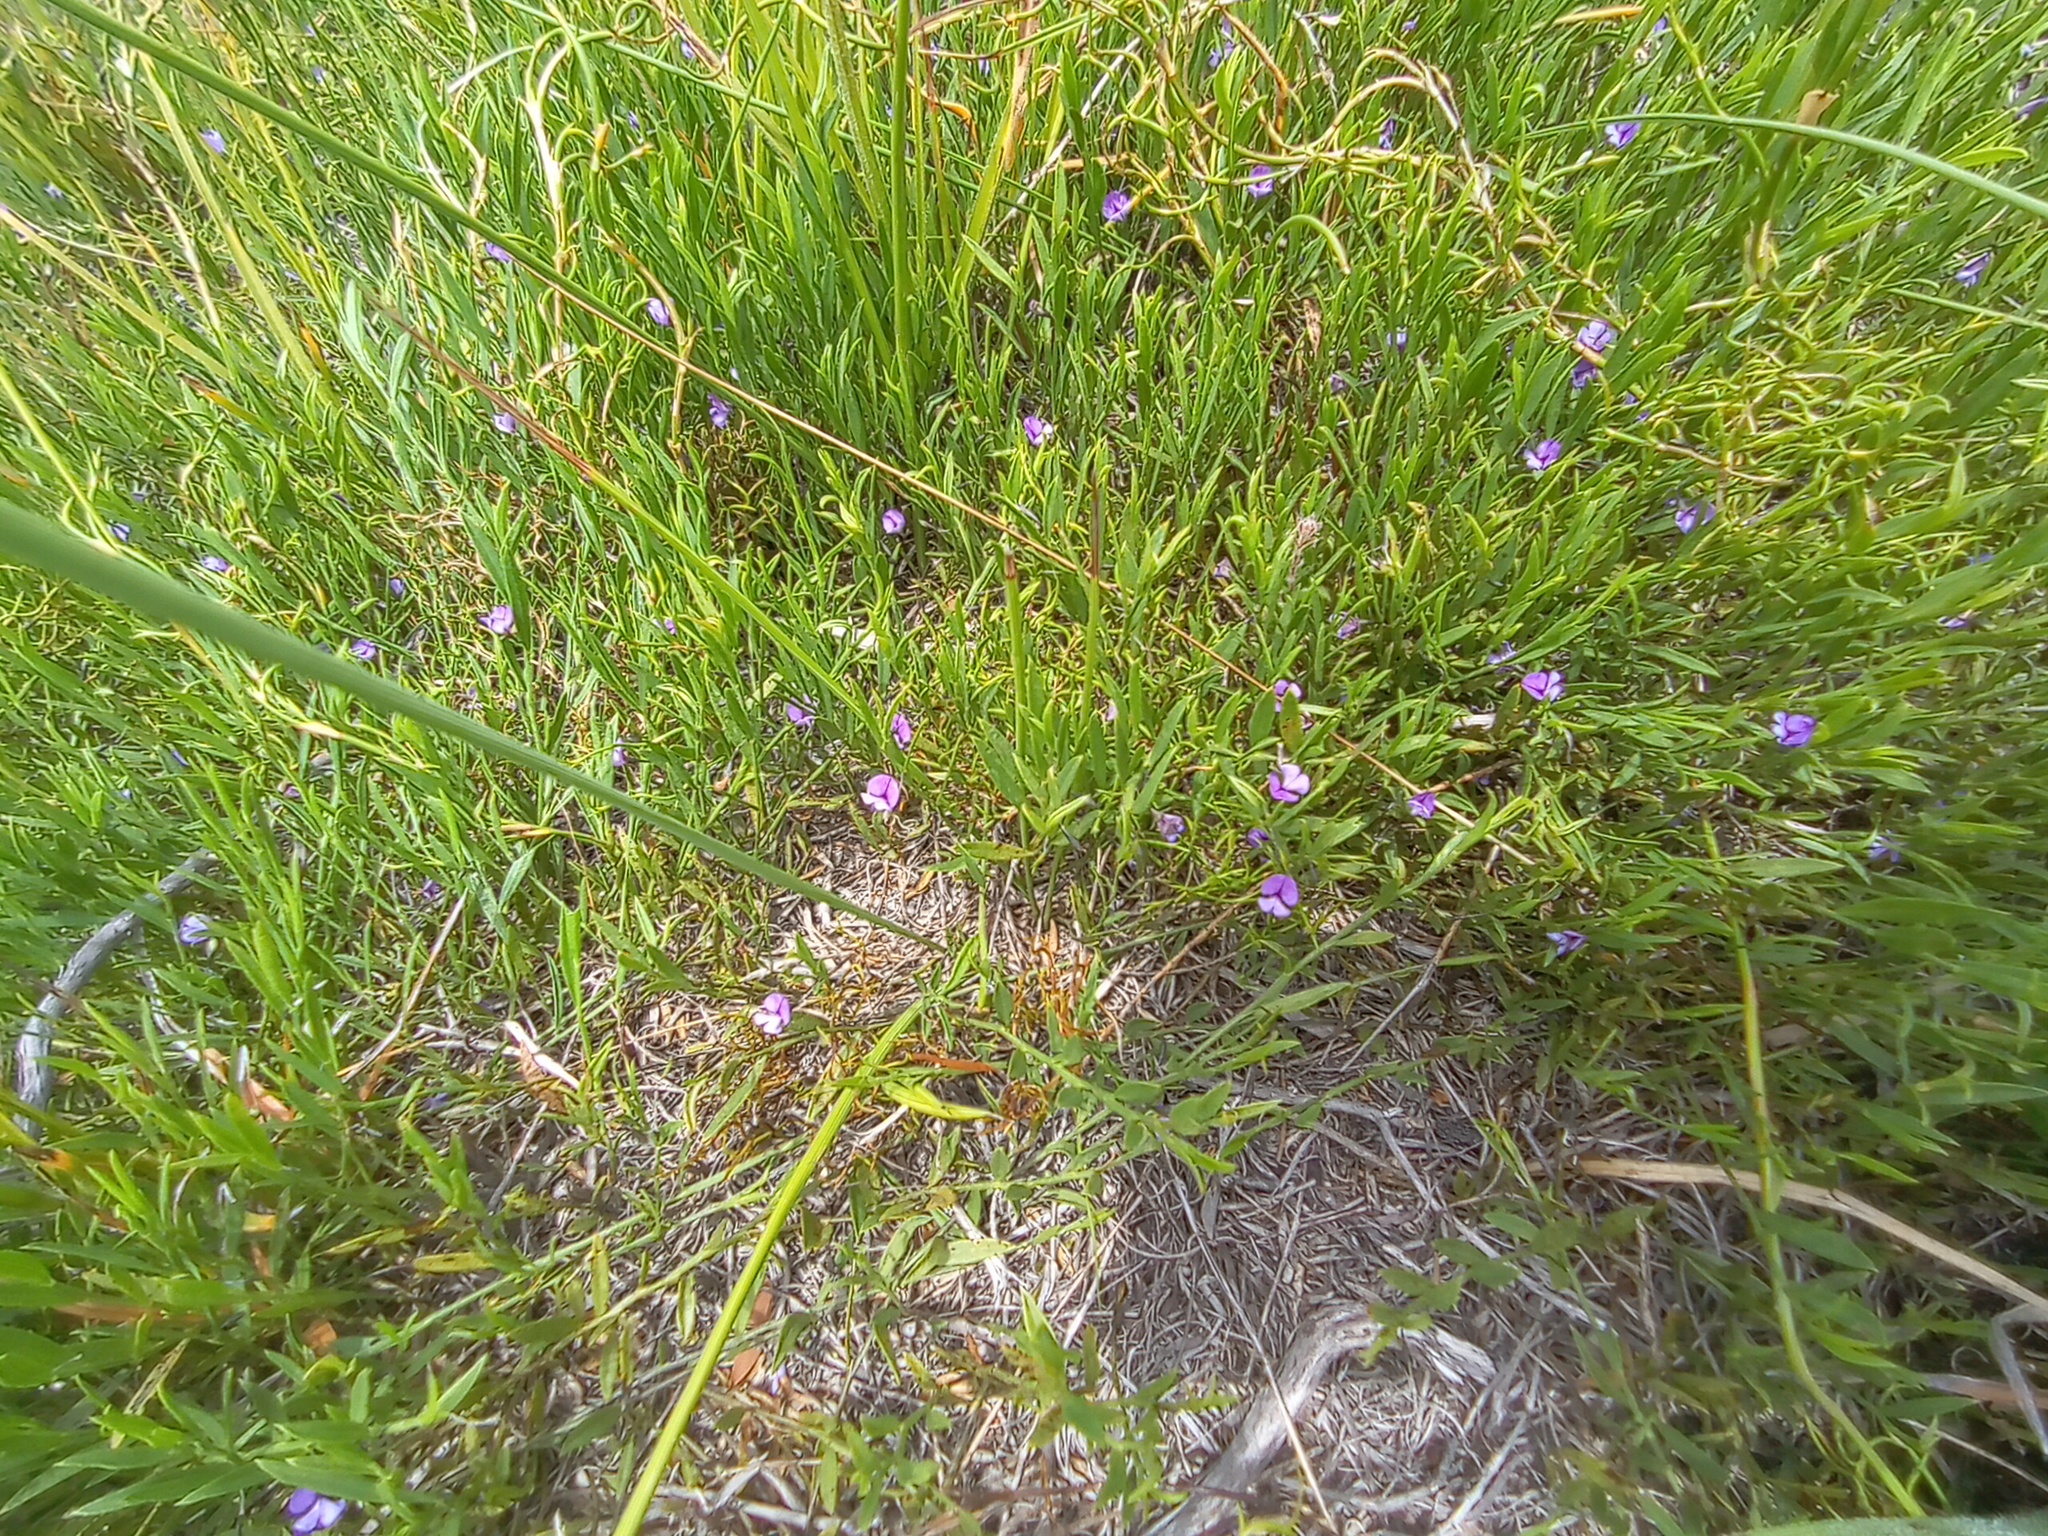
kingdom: Plantae
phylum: Tracheophyta
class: Magnoliopsida
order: Fabales
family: Fabaceae
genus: Psoralea
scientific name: Psoralea laxa
